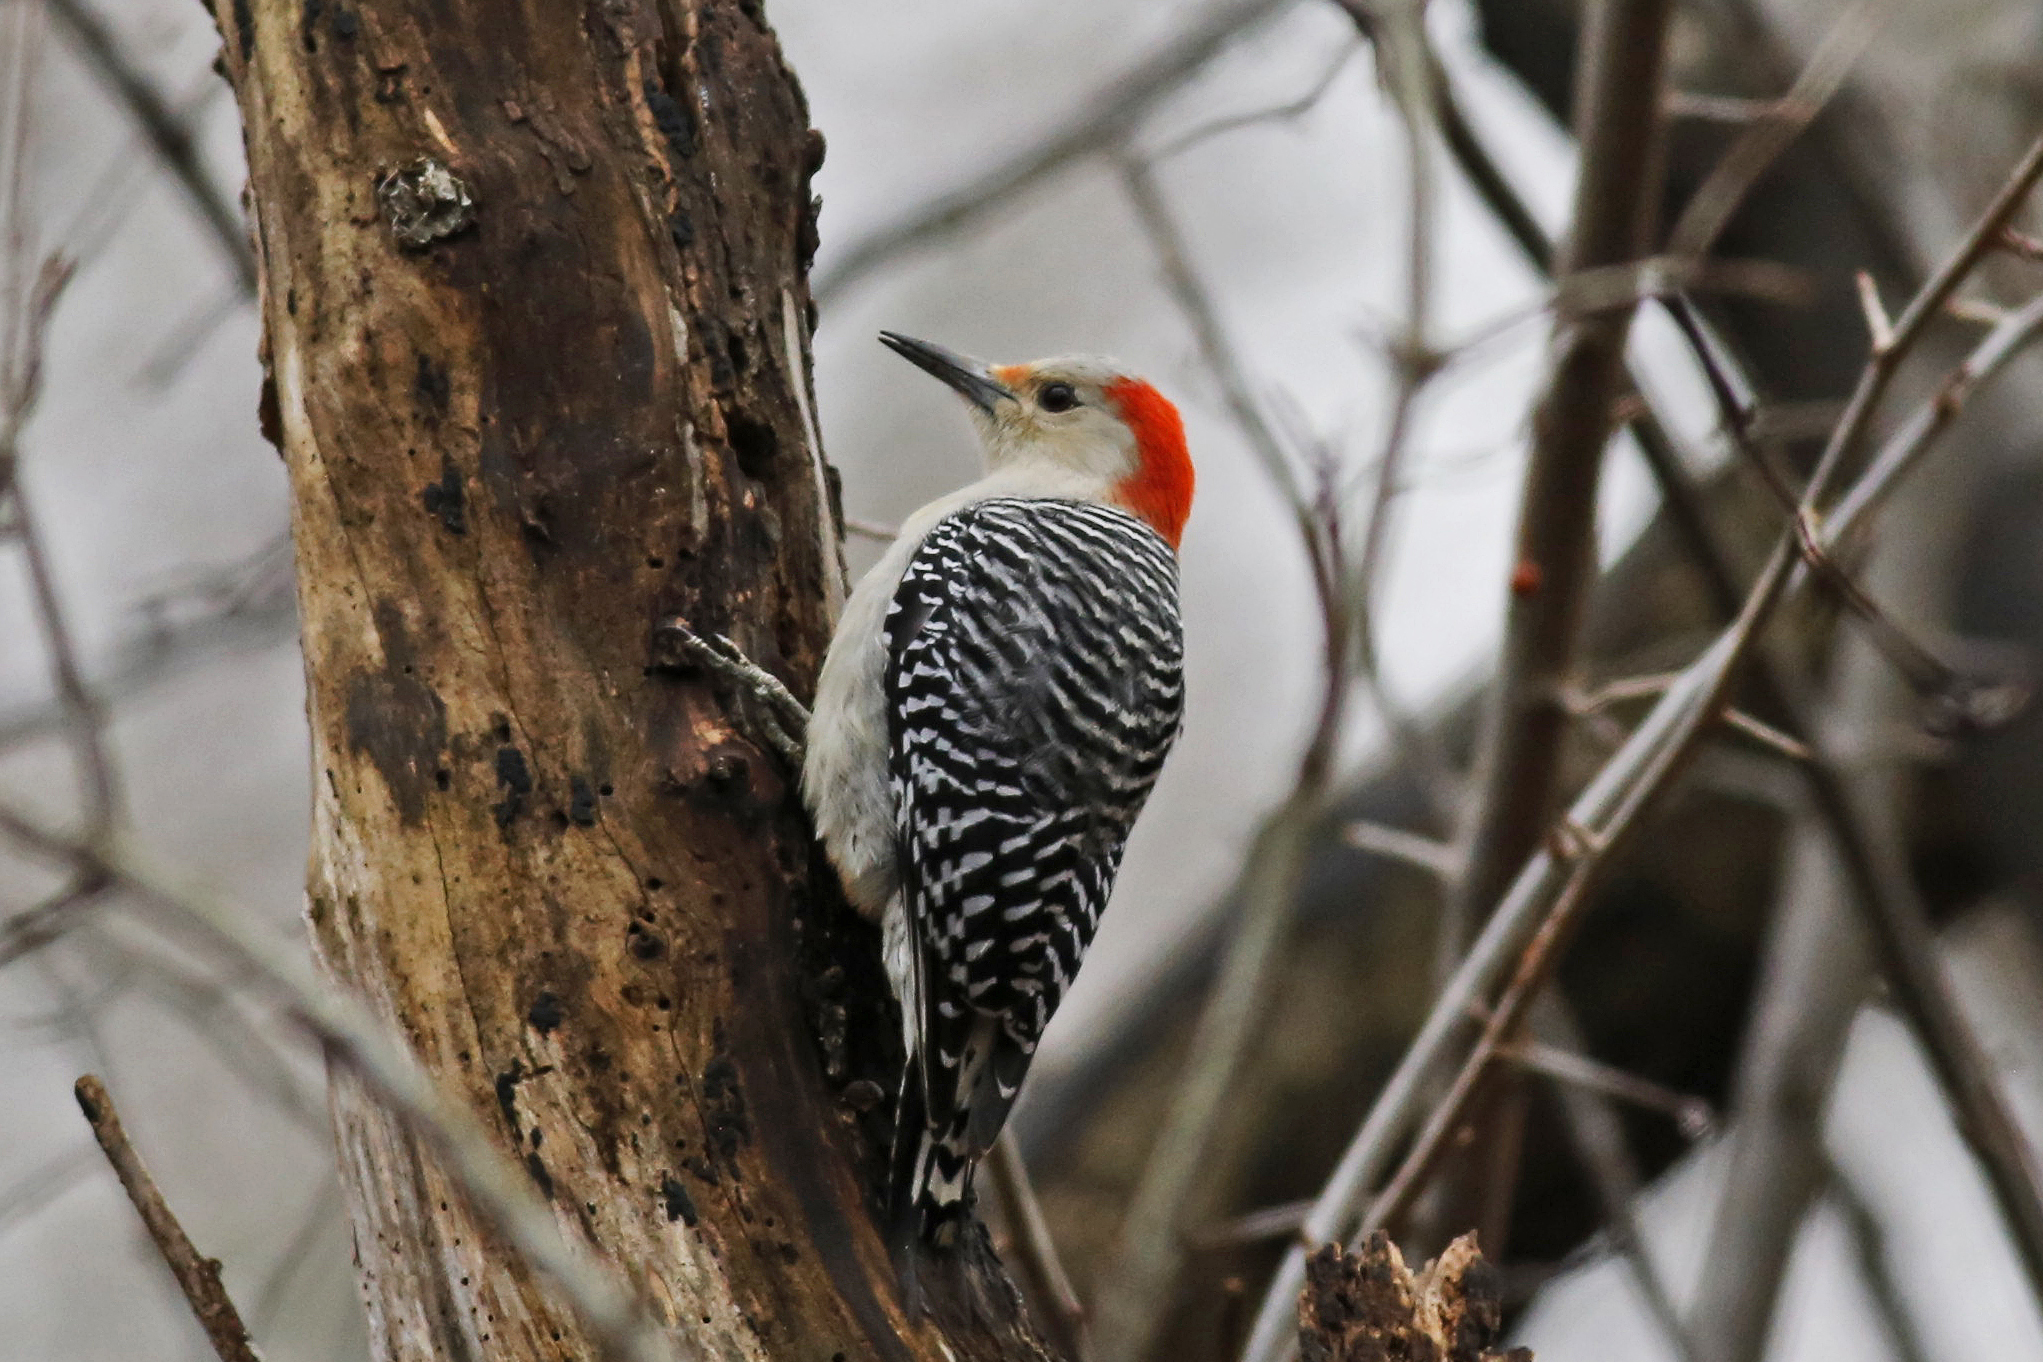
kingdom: Animalia
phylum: Chordata
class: Aves
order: Piciformes
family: Picidae
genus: Melanerpes
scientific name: Melanerpes carolinus
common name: Red-bellied woodpecker
